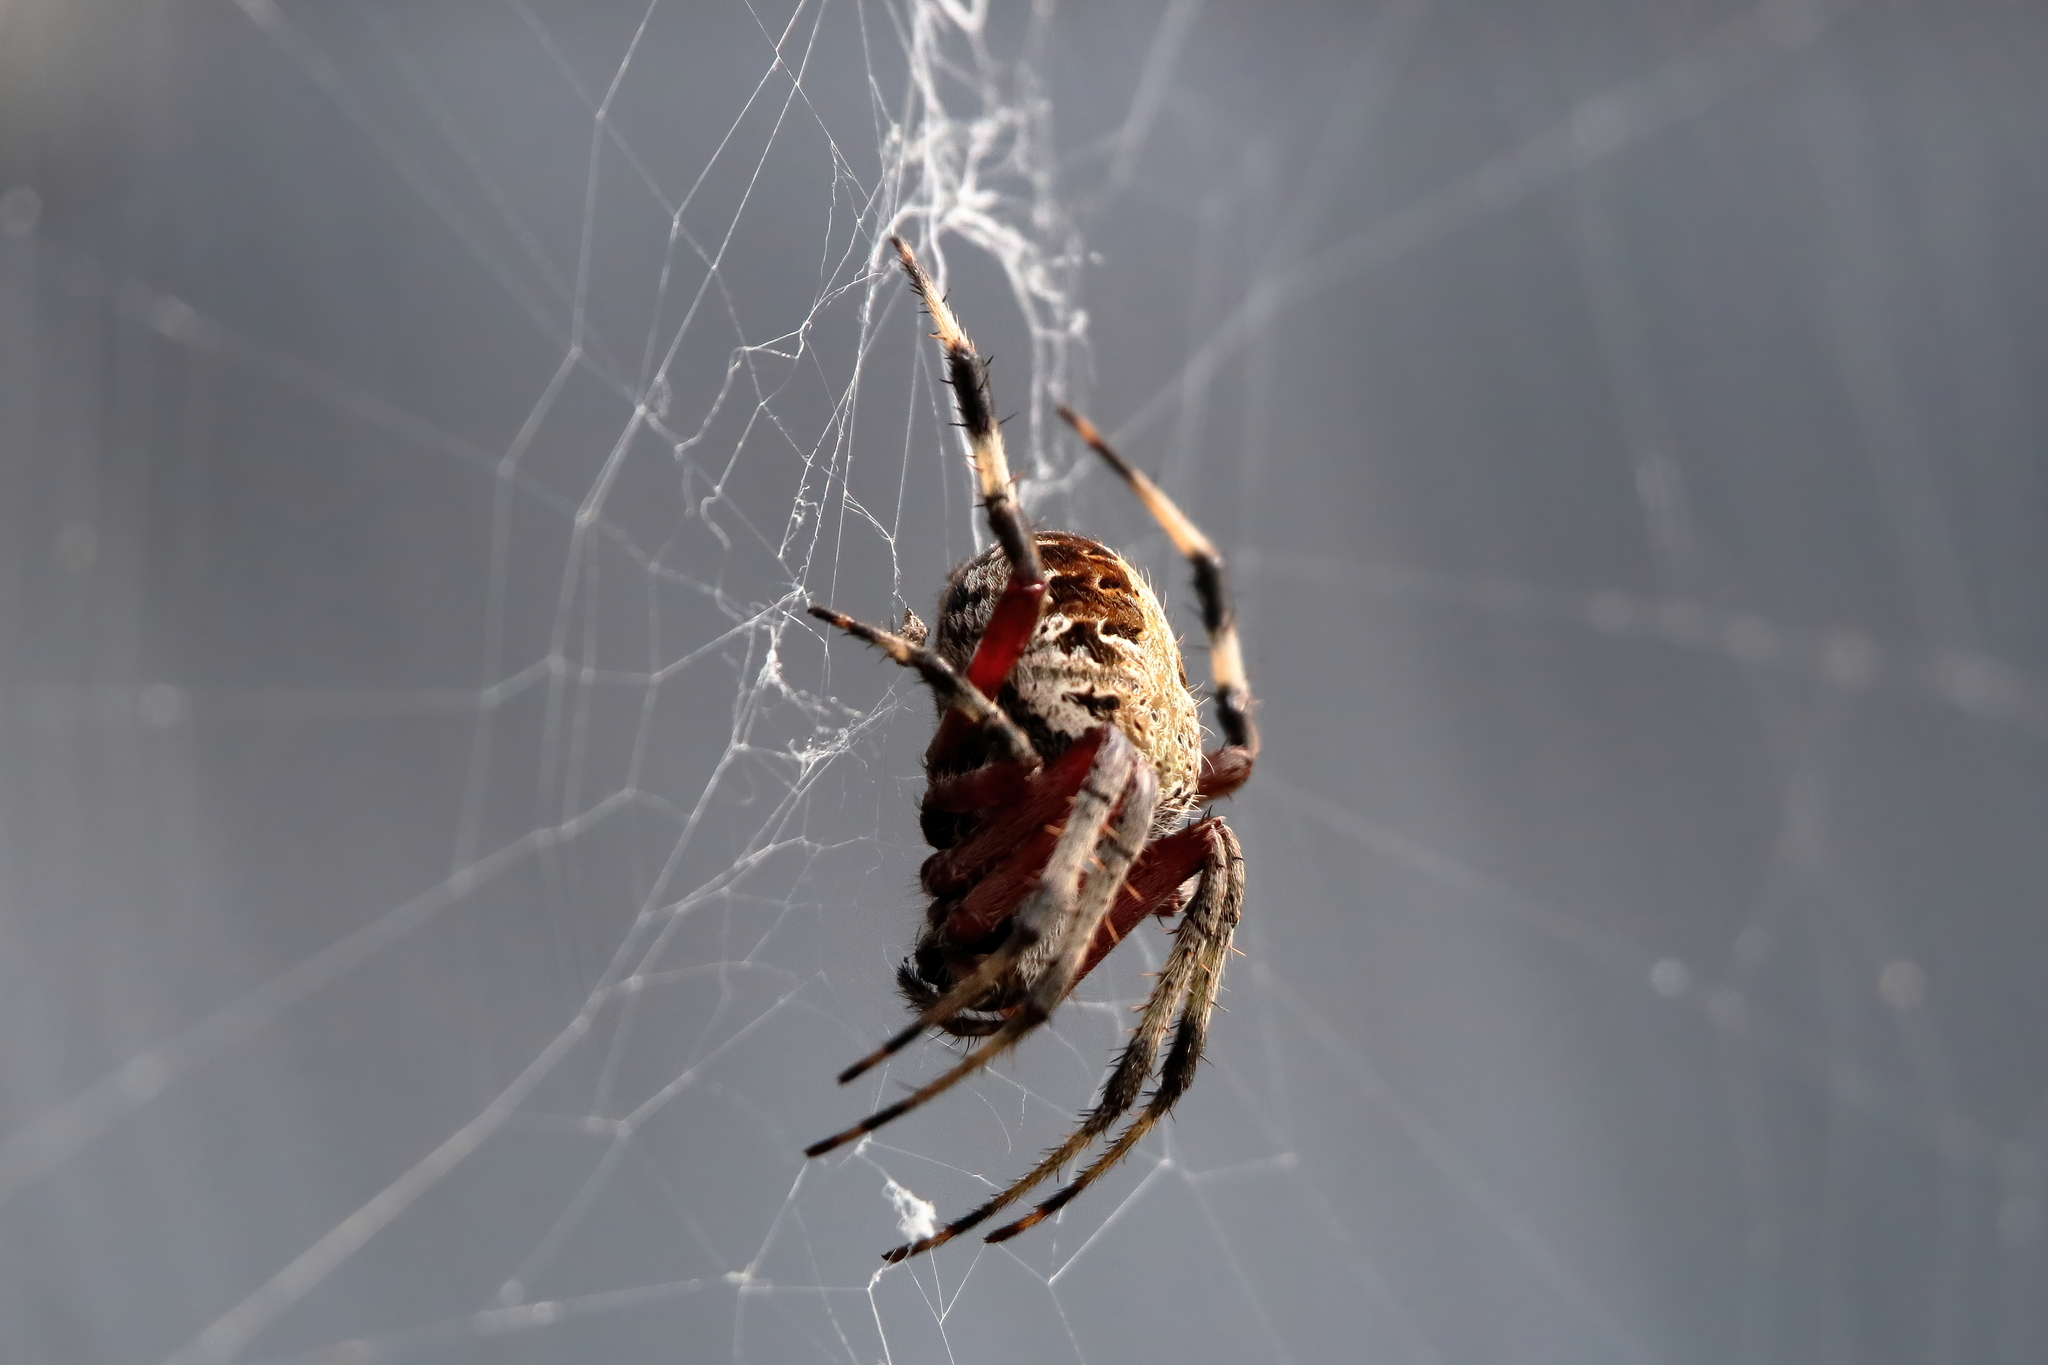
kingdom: Animalia
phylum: Arthropoda
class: Arachnida
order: Araneae
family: Araneidae
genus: Neoscona
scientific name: Neoscona domiciliorum
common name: Red-femured spotted orbweaver
